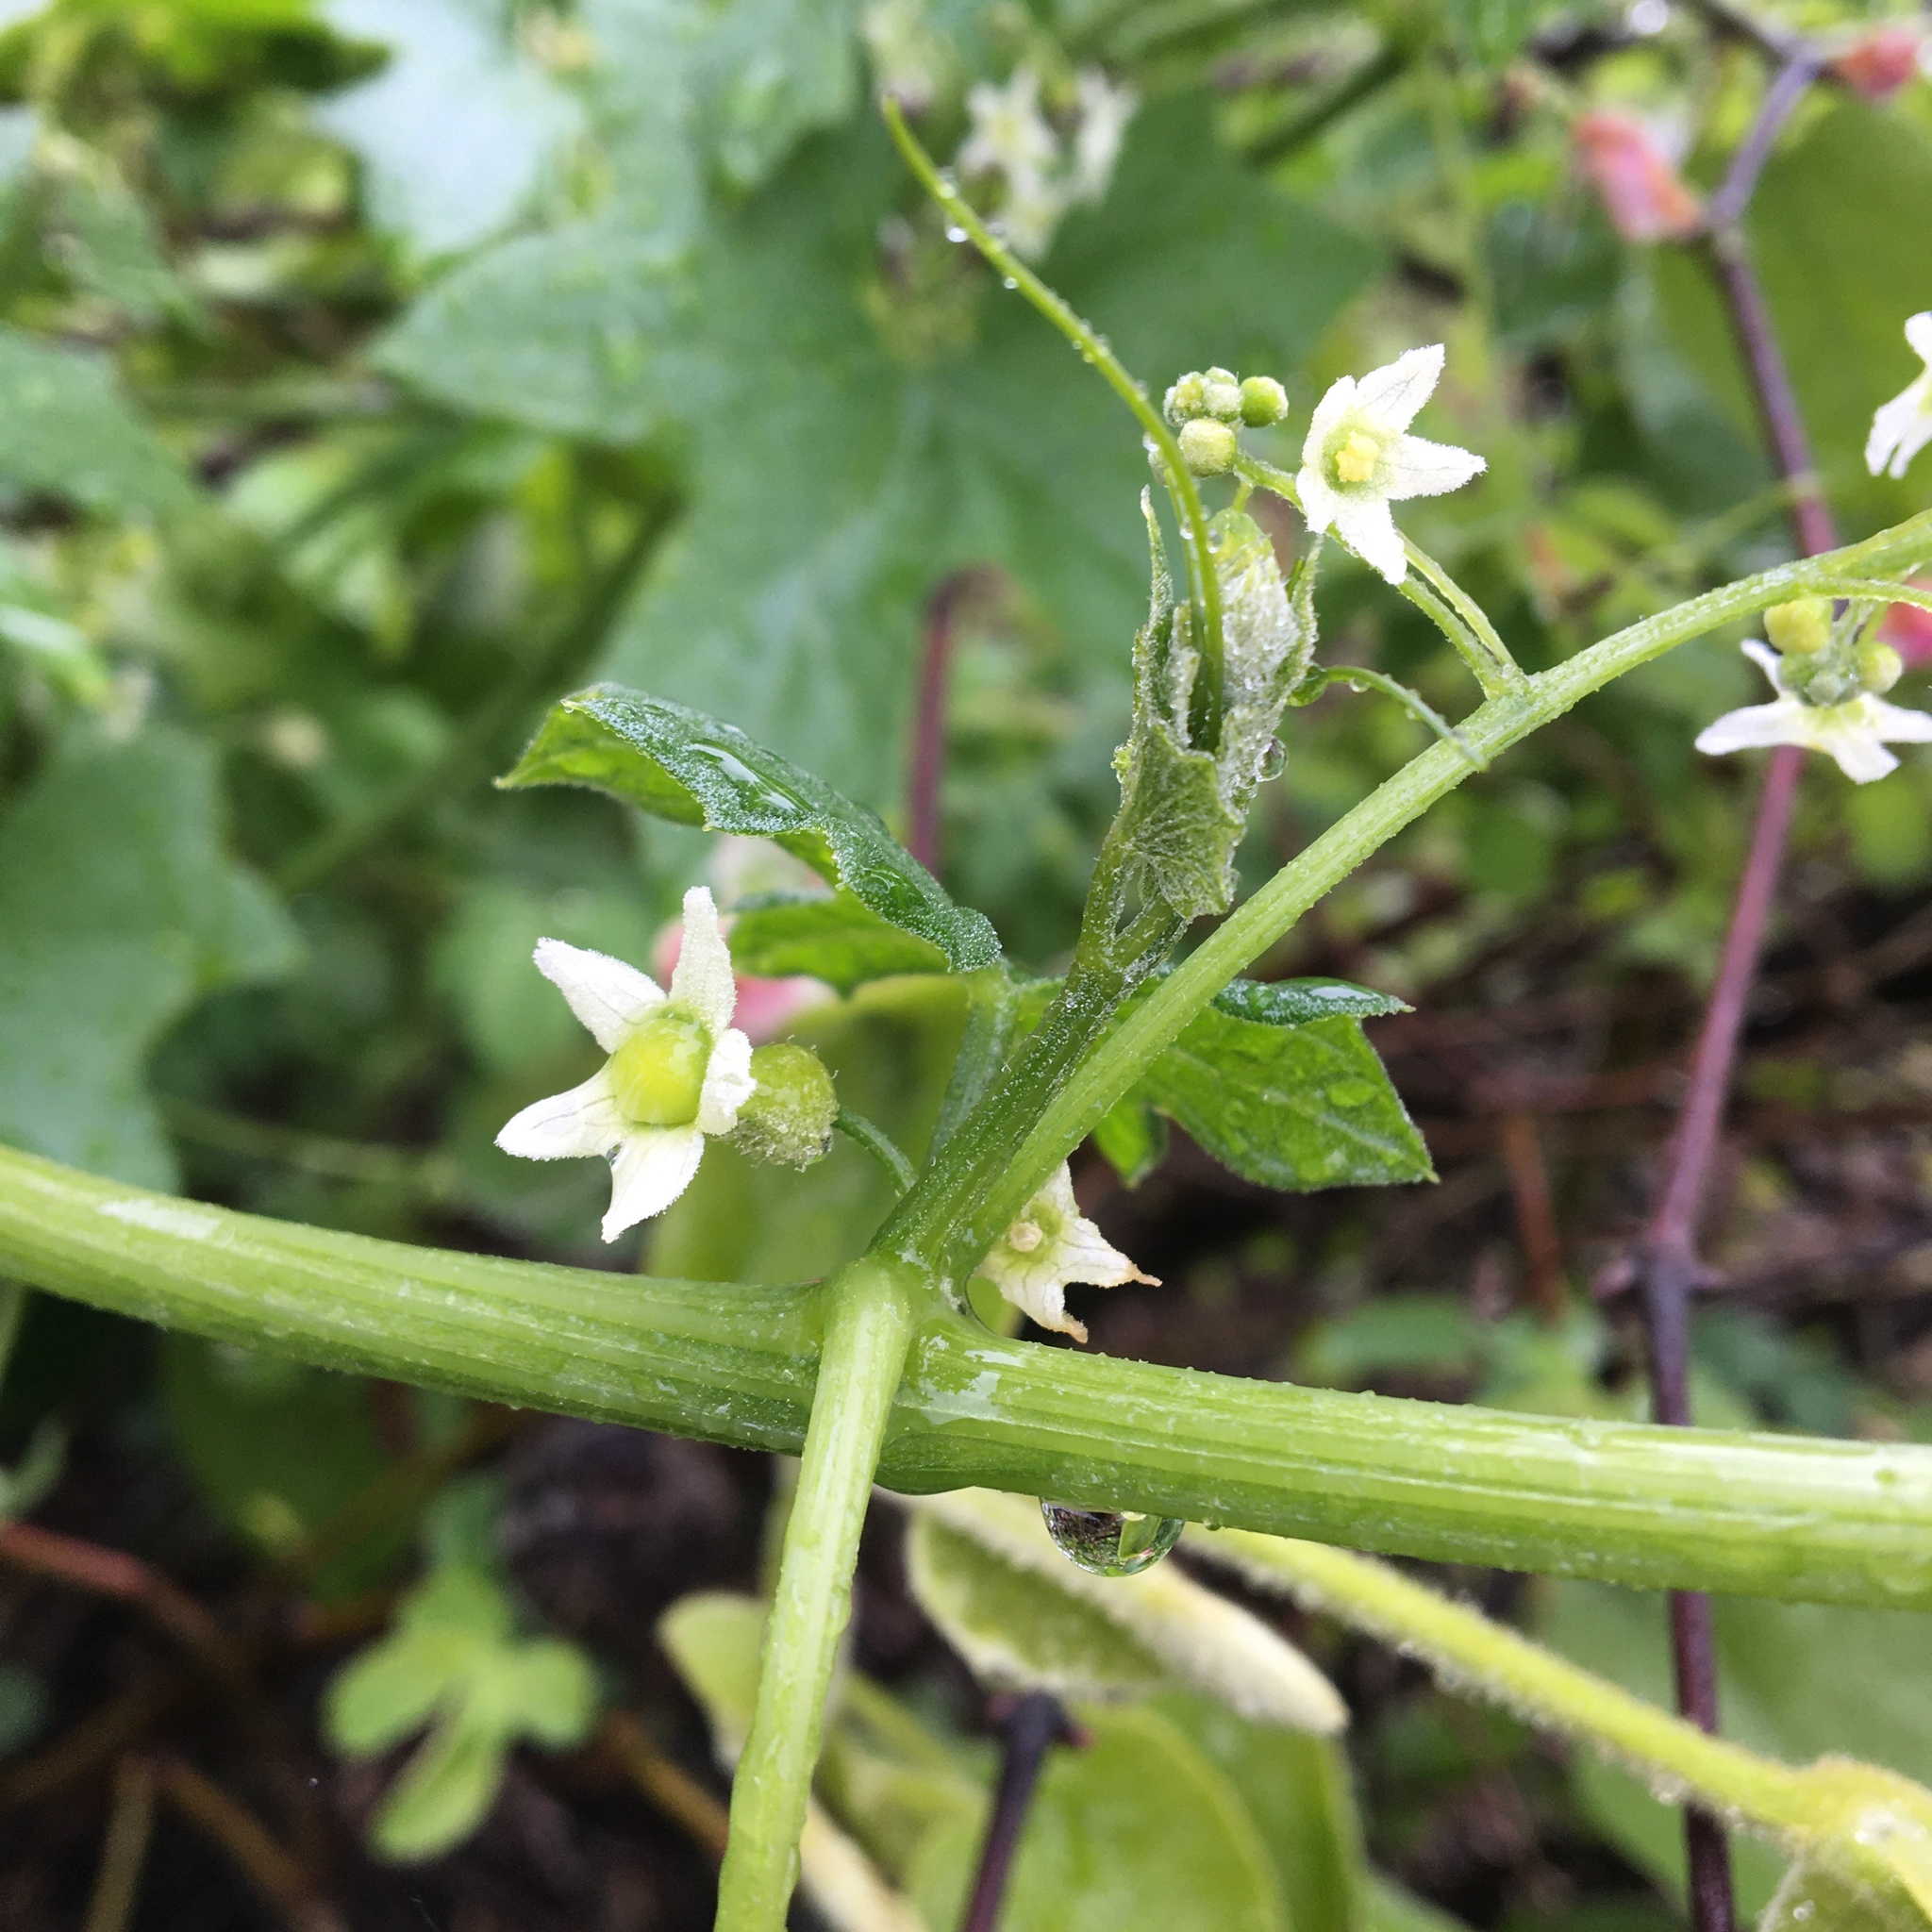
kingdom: Plantae
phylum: Tracheophyta
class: Magnoliopsida
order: Cucurbitales
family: Cucurbitaceae
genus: Marah
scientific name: Marah fabacea
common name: California manroot
